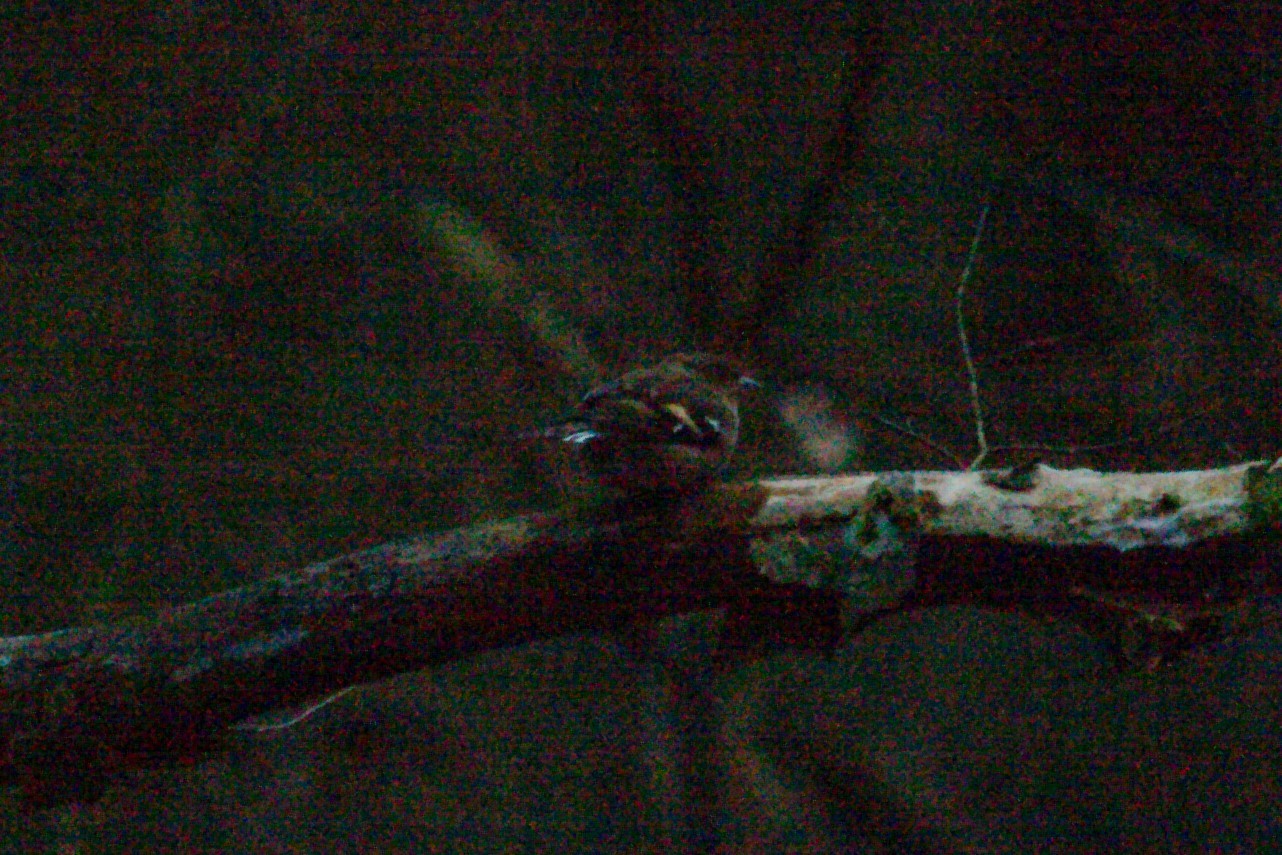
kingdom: Animalia
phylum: Chordata
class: Aves
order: Passeriformes
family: Fringillidae
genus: Fringilla
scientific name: Fringilla coelebs
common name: Common chaffinch
